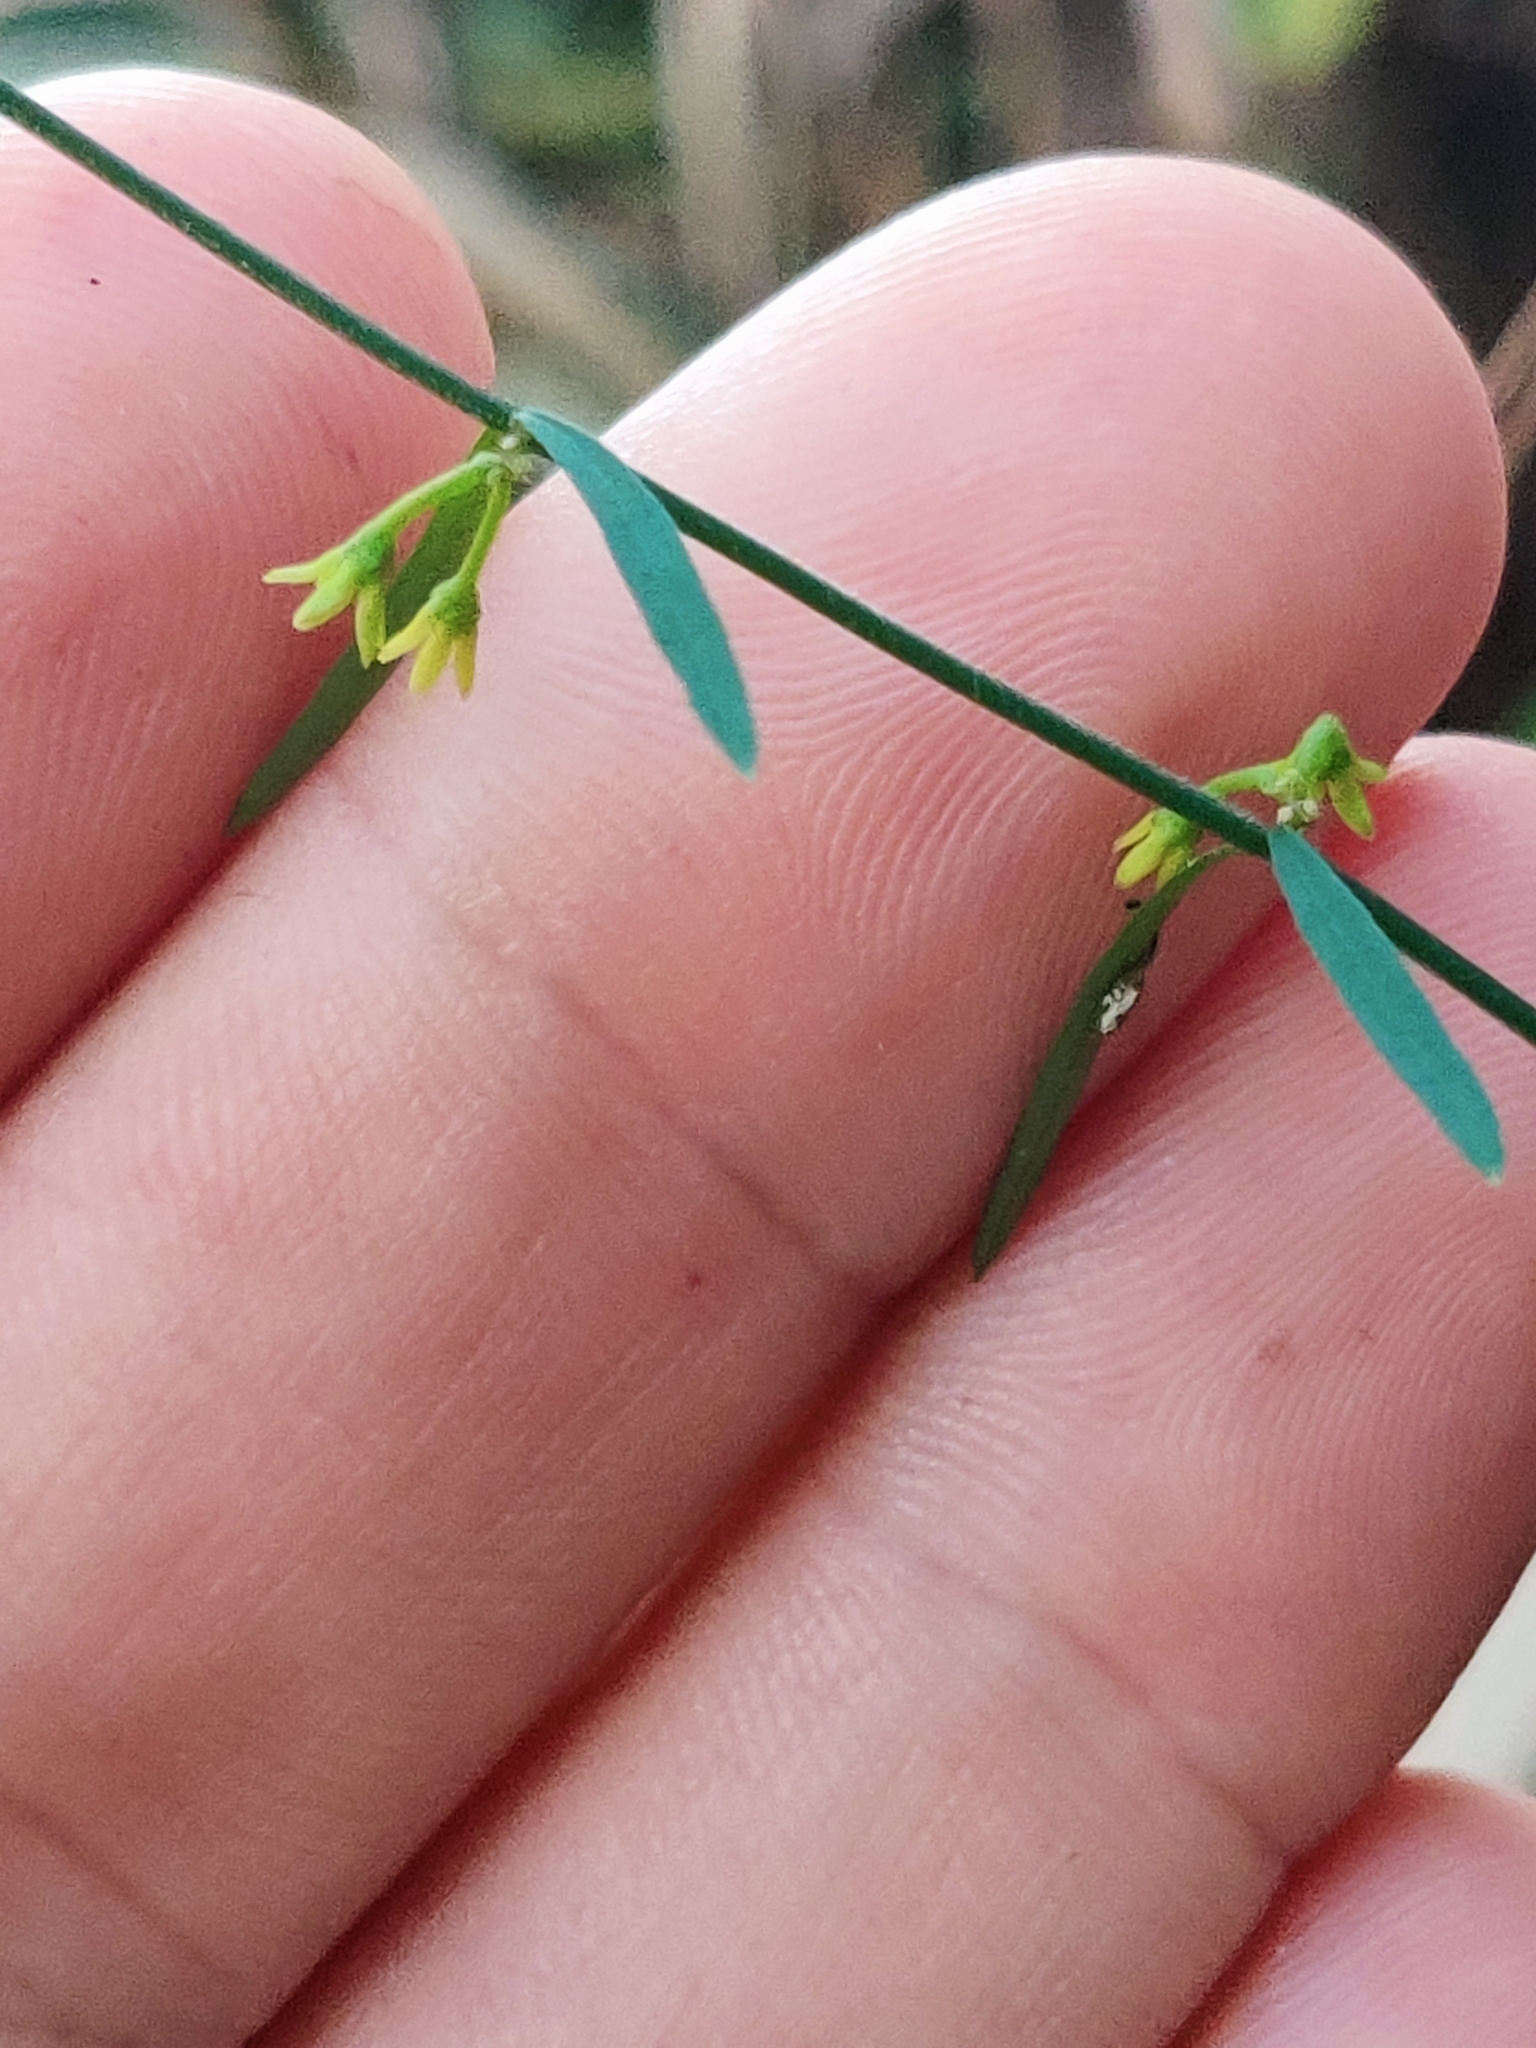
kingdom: Plantae
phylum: Tracheophyta
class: Magnoliopsida
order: Gentianales
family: Apocynaceae
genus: Orthosia
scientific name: Orthosia scoparia
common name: Leafless swallow-wort
